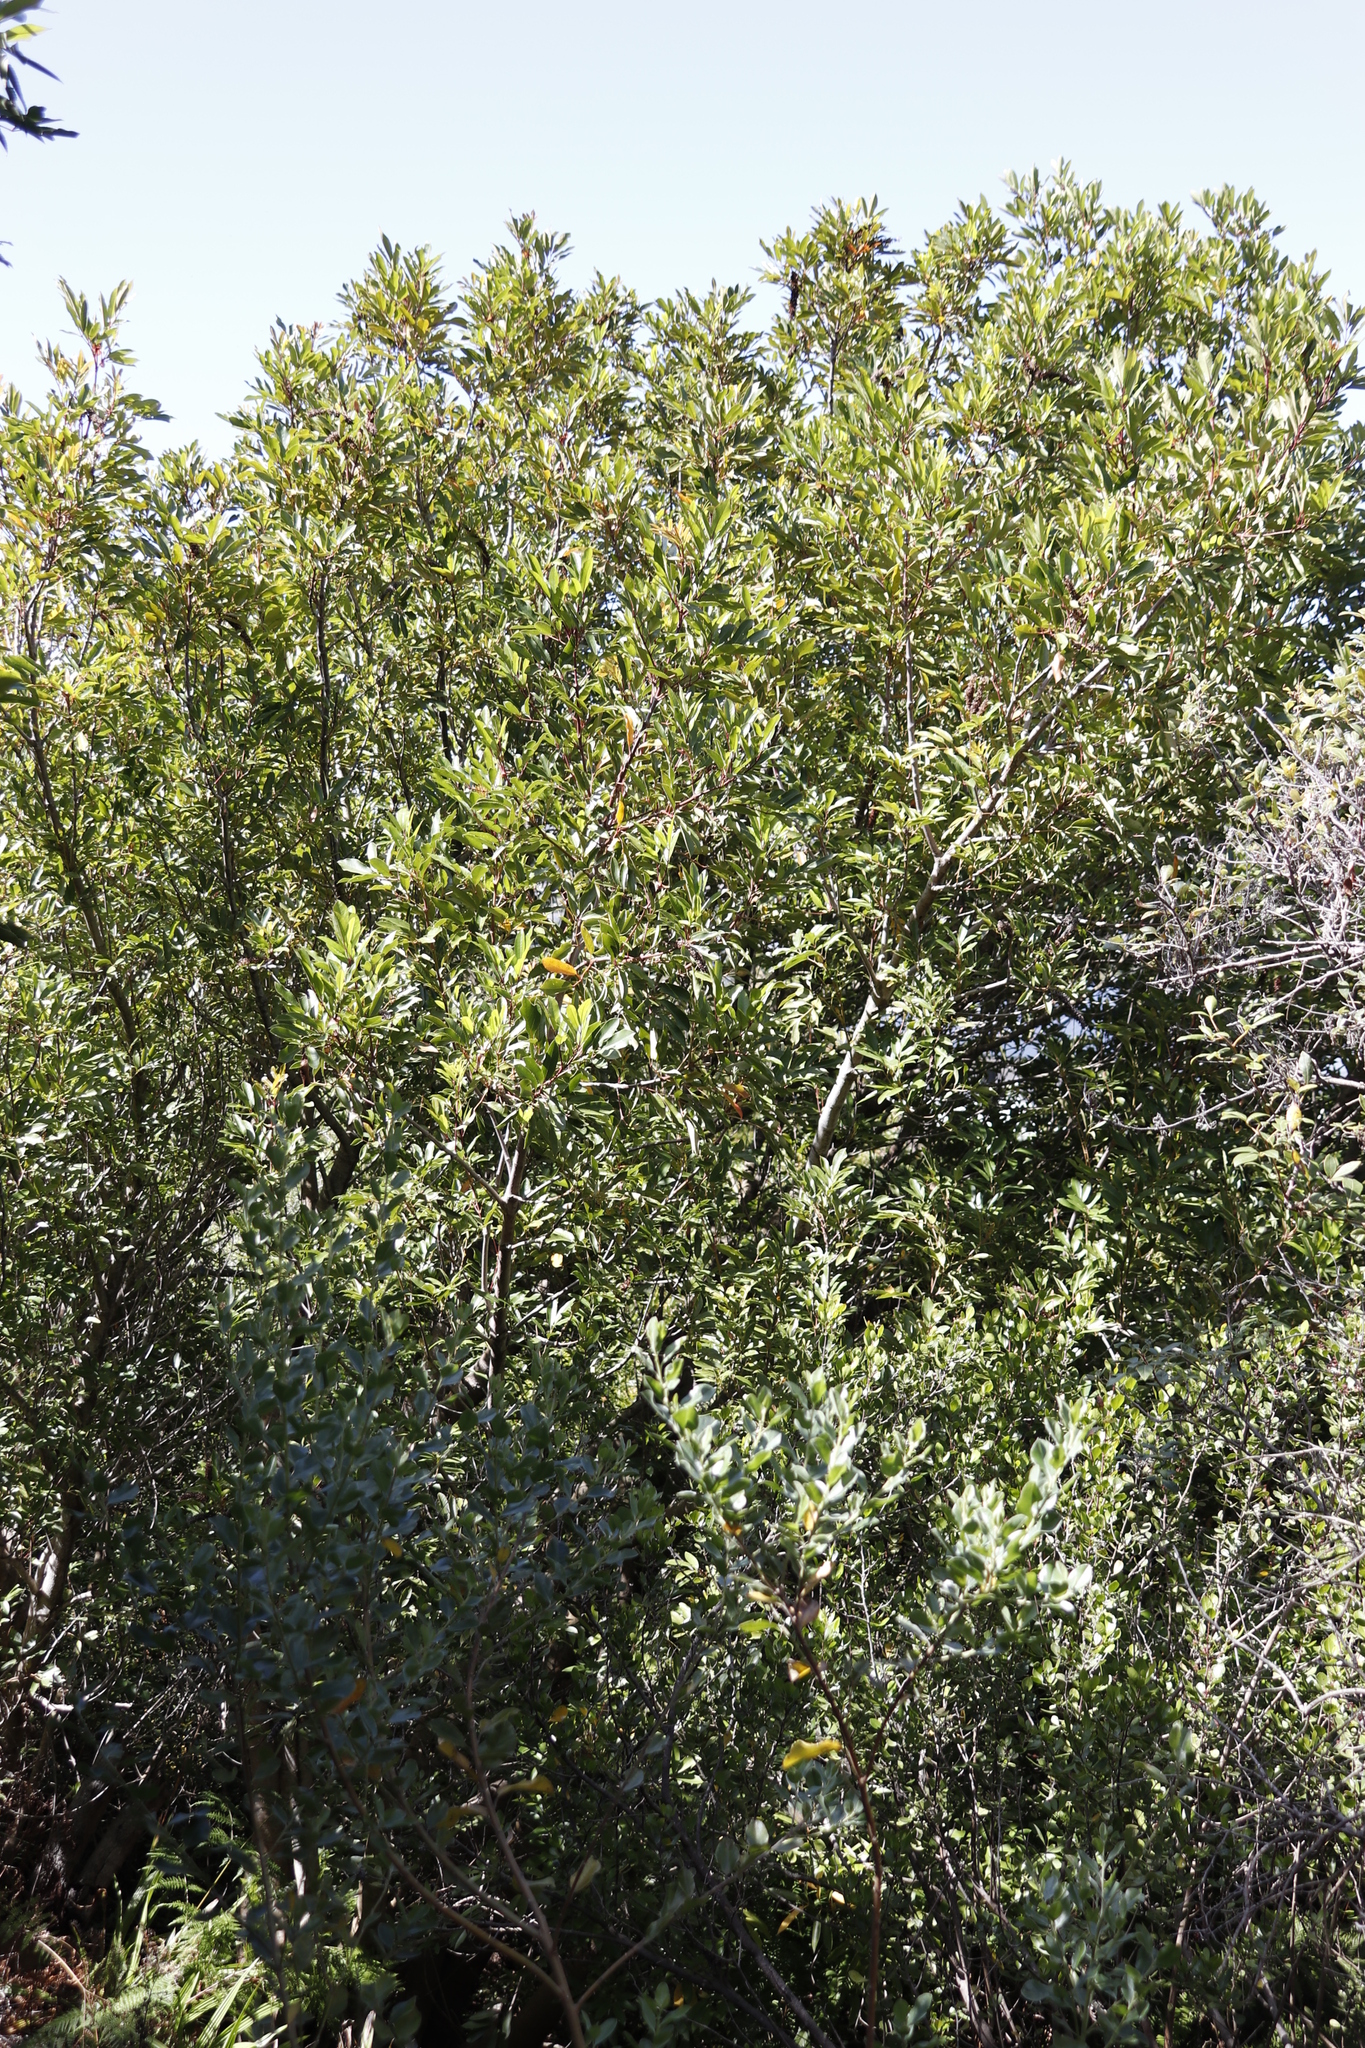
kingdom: Plantae
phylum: Tracheophyta
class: Magnoliopsida
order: Oxalidales
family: Cunoniaceae
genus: Cunonia
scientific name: Cunonia capensis
